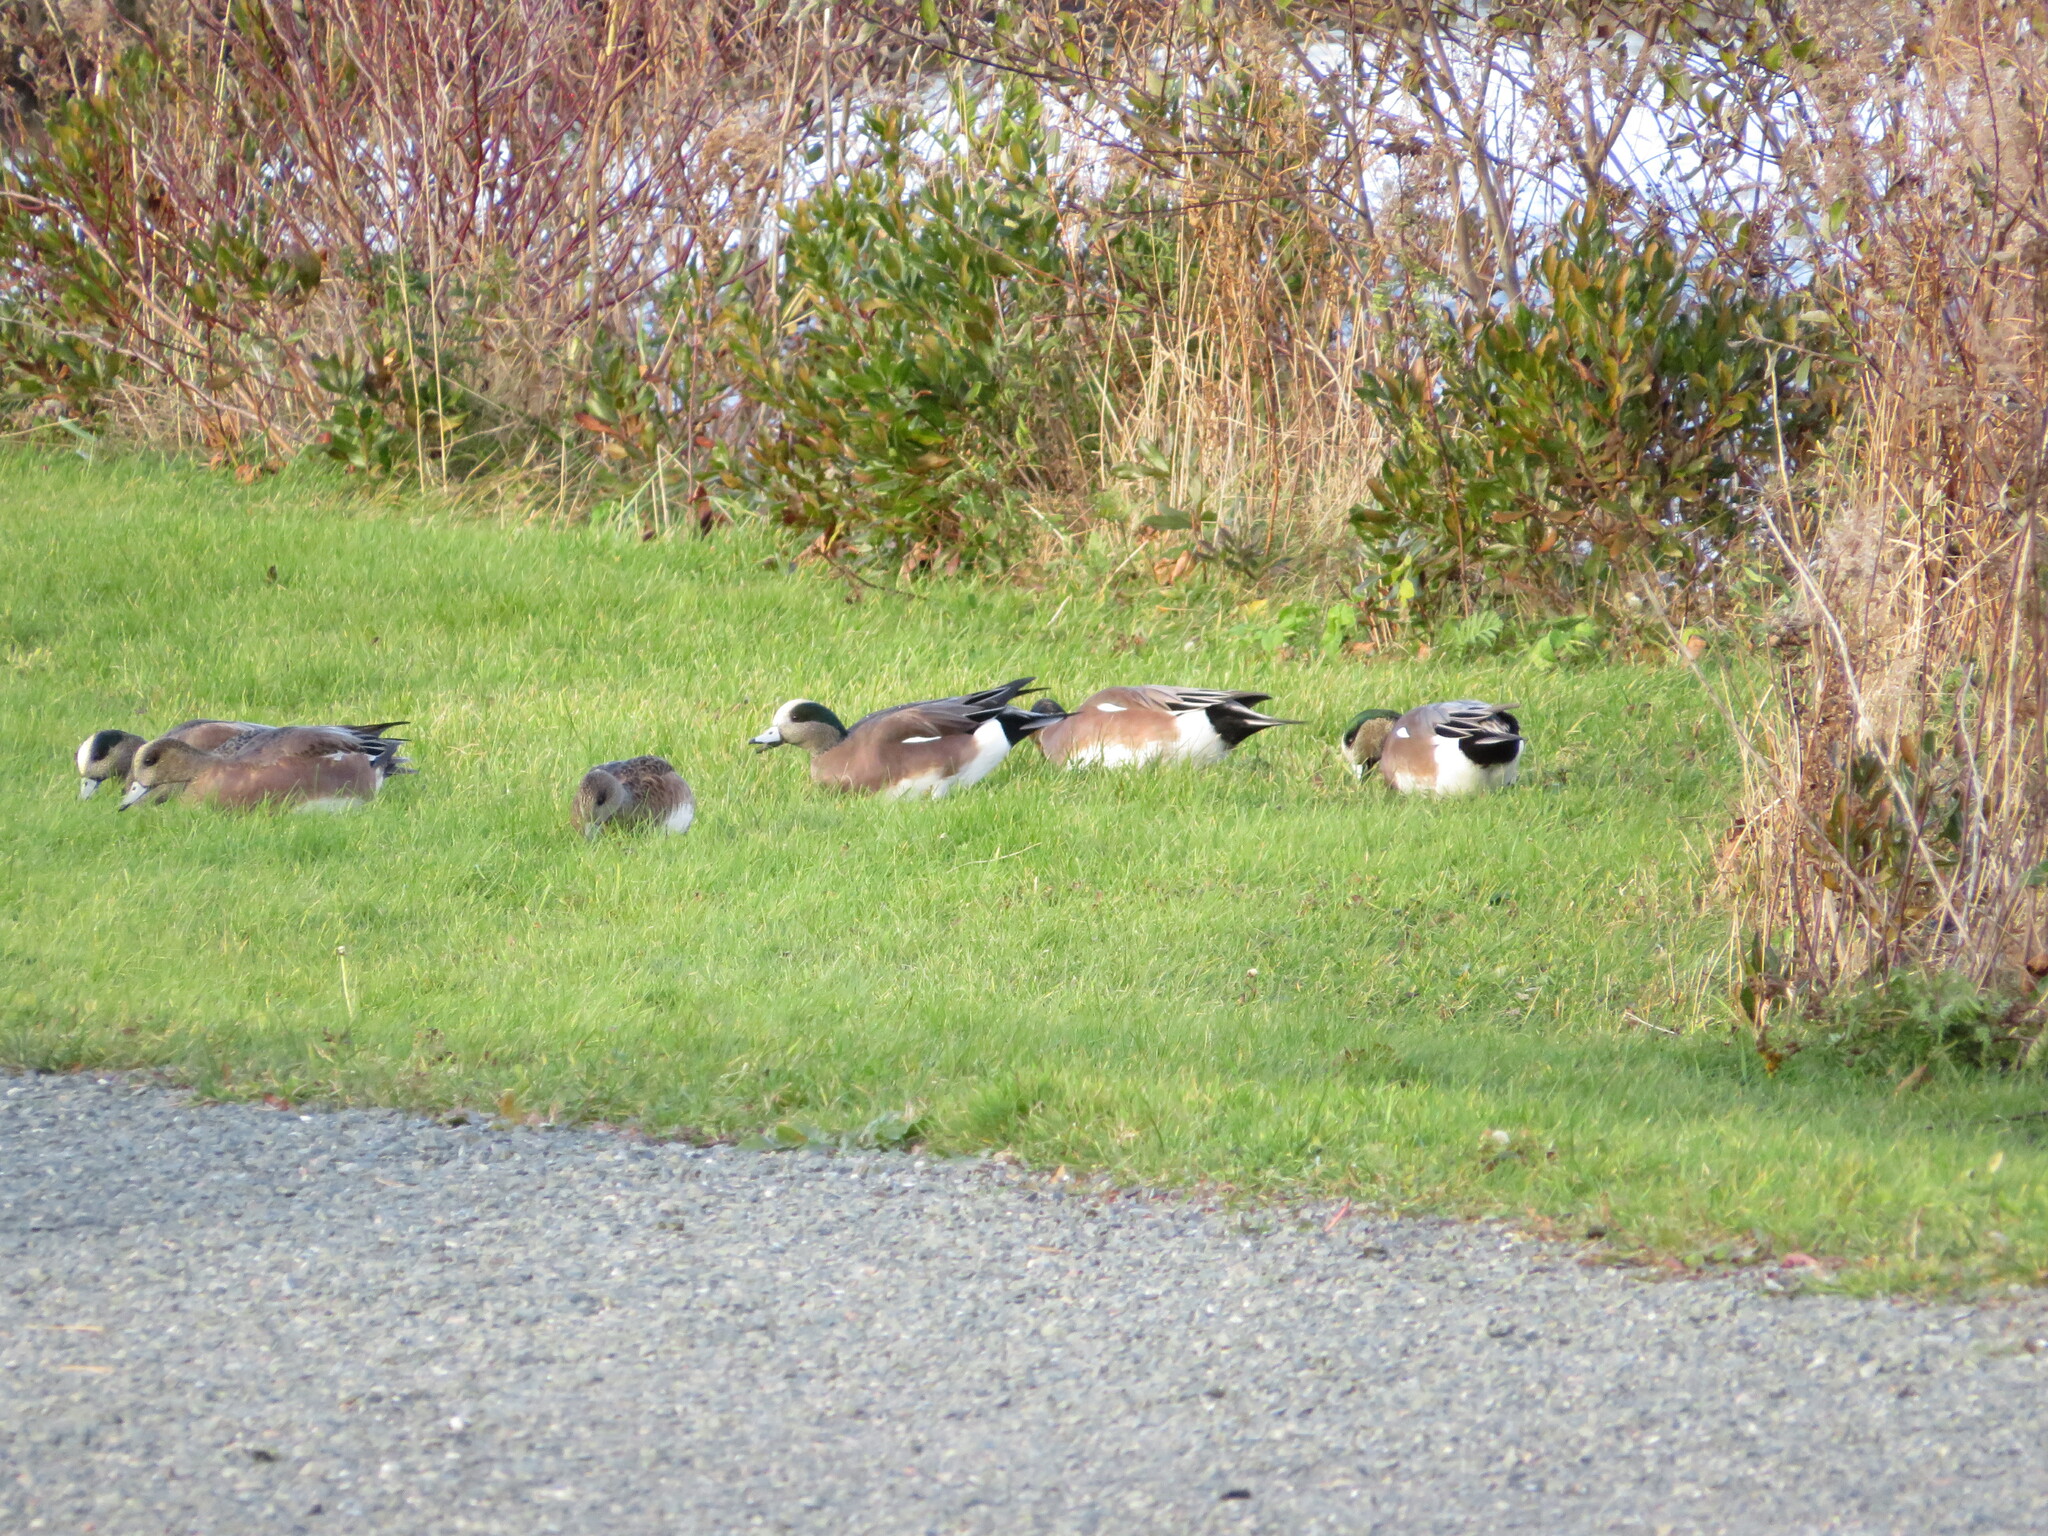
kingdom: Animalia
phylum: Chordata
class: Aves
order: Anseriformes
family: Anatidae
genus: Mareca
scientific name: Mareca americana
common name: American wigeon
